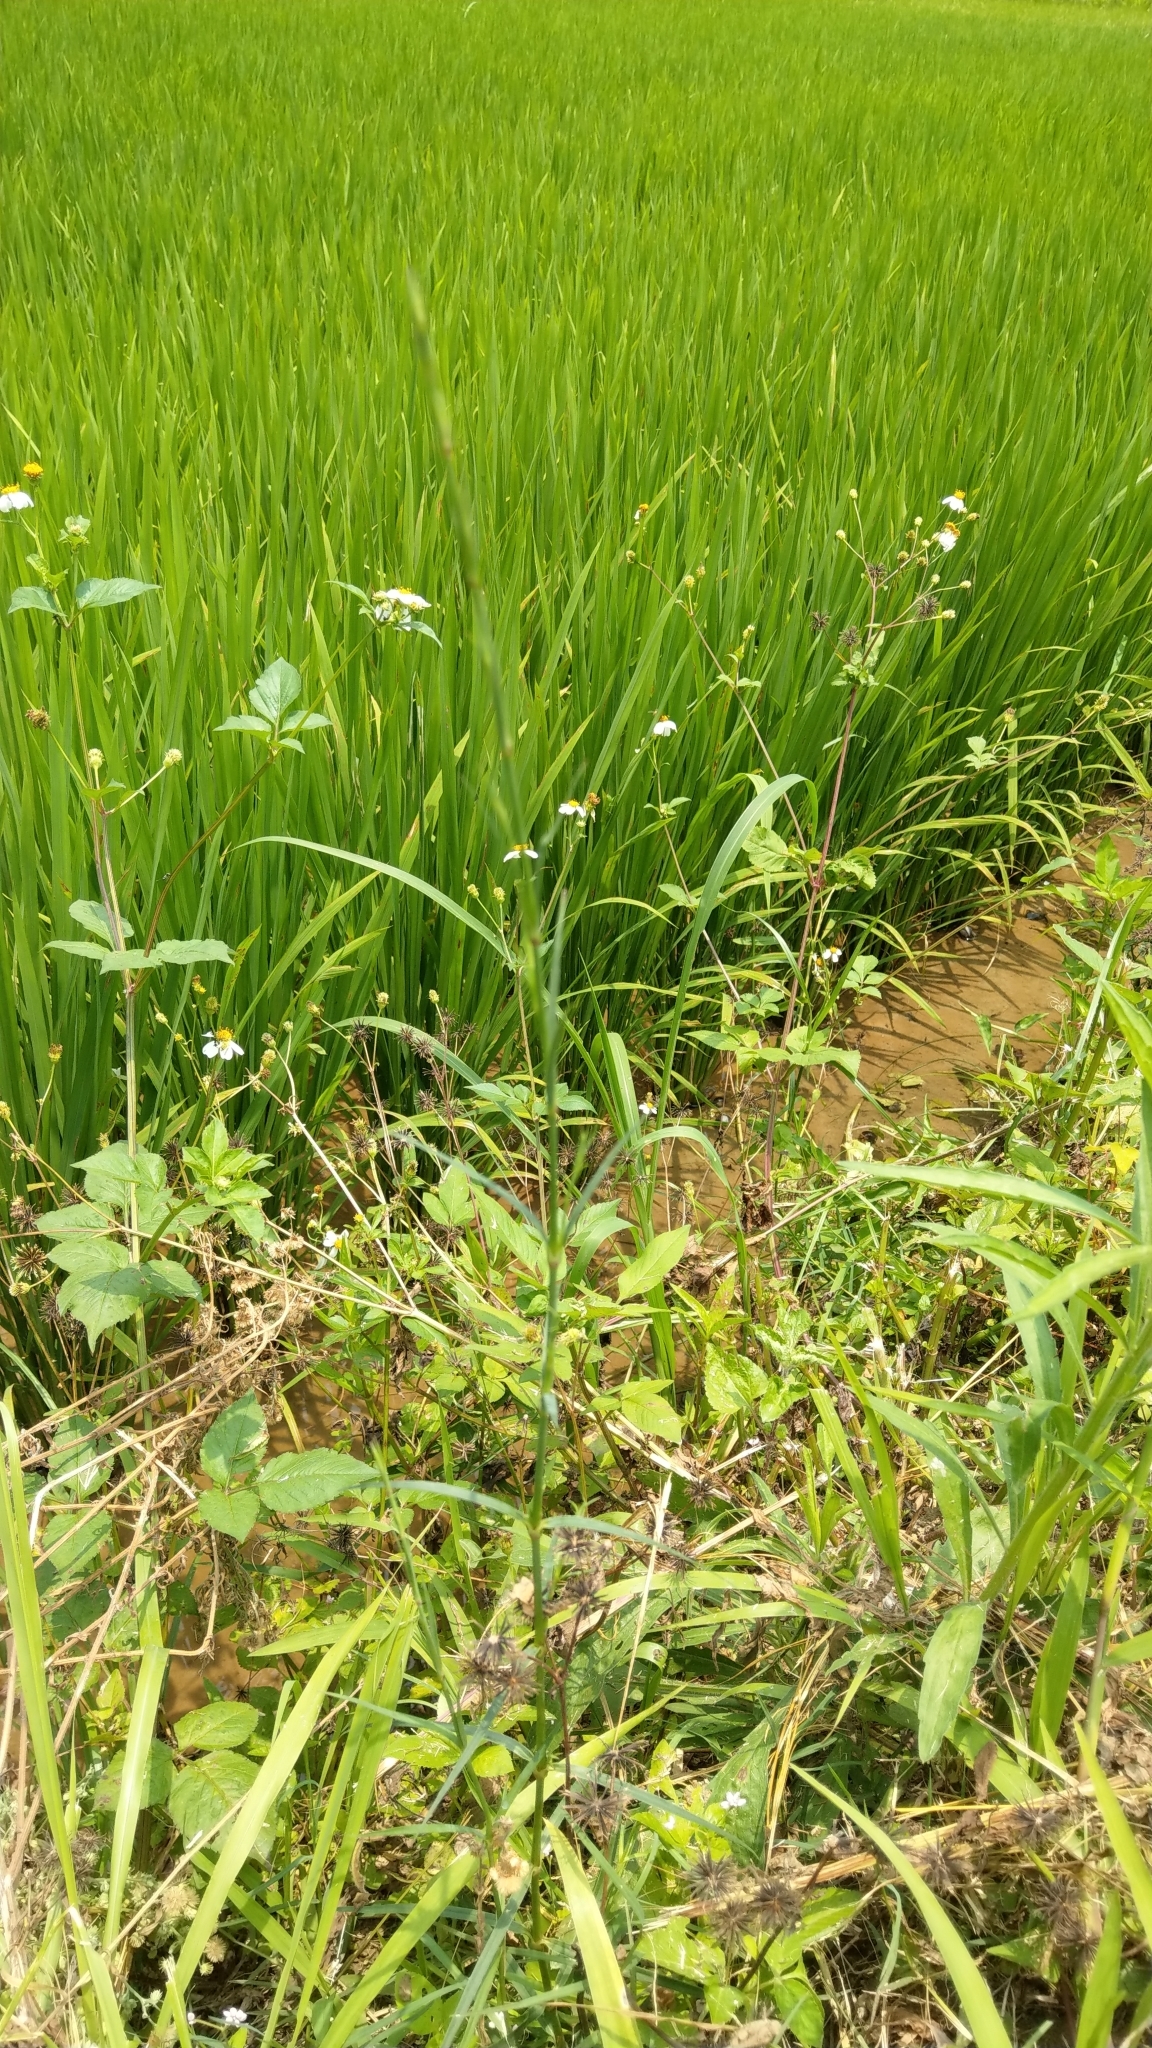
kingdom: Plantae
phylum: Tracheophyta
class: Magnoliopsida
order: Asterales
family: Asteraceae
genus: Bidens
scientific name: Bidens alba
